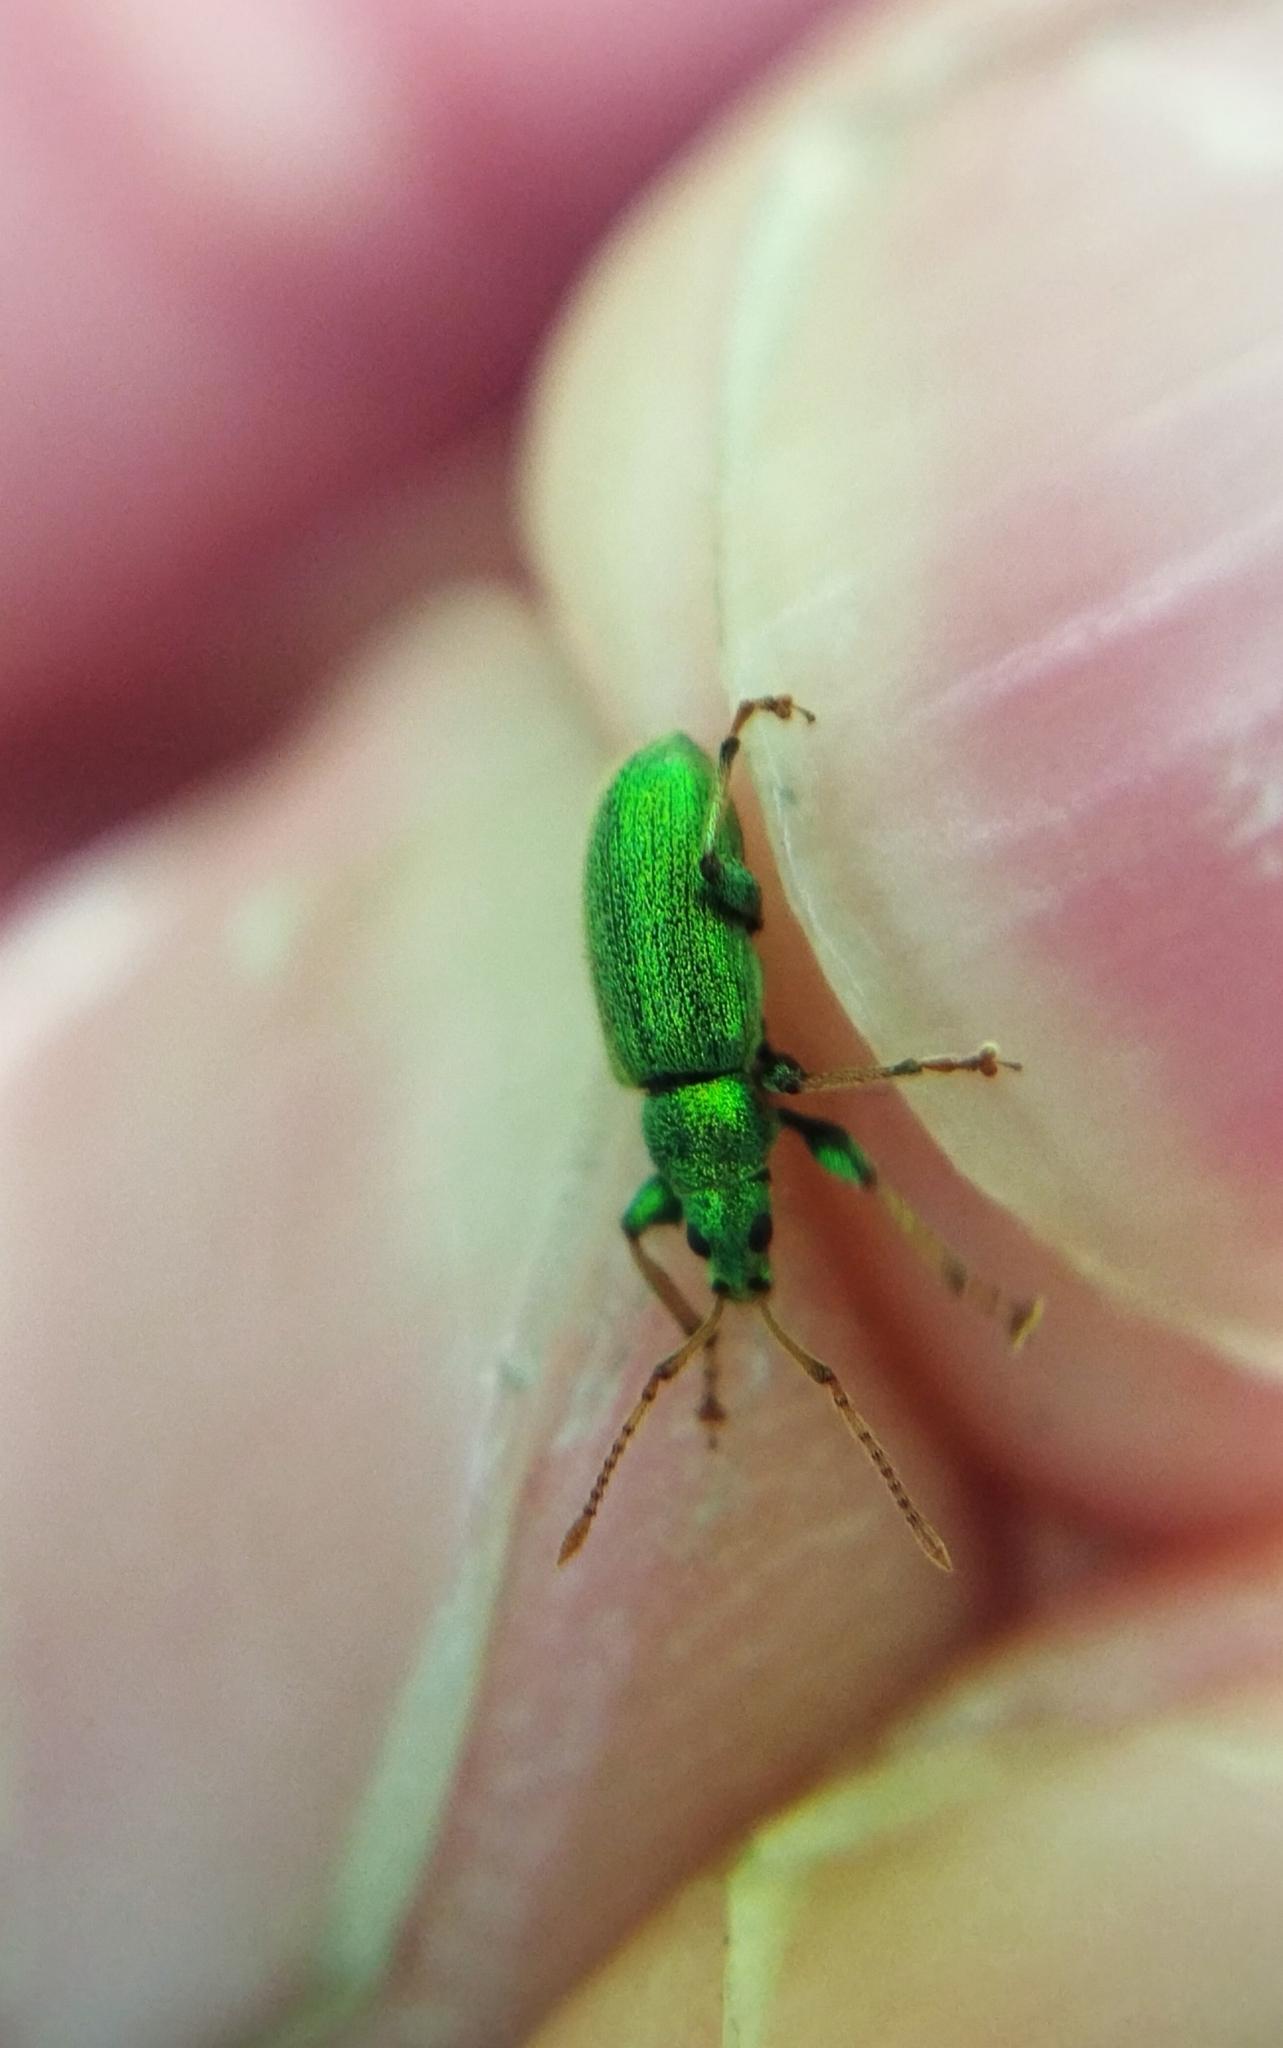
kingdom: Animalia
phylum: Arthropoda
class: Insecta
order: Coleoptera
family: Curculionidae
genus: Phyllobius
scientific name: Phyllobius argentatus
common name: Silver-green leaf weevil
